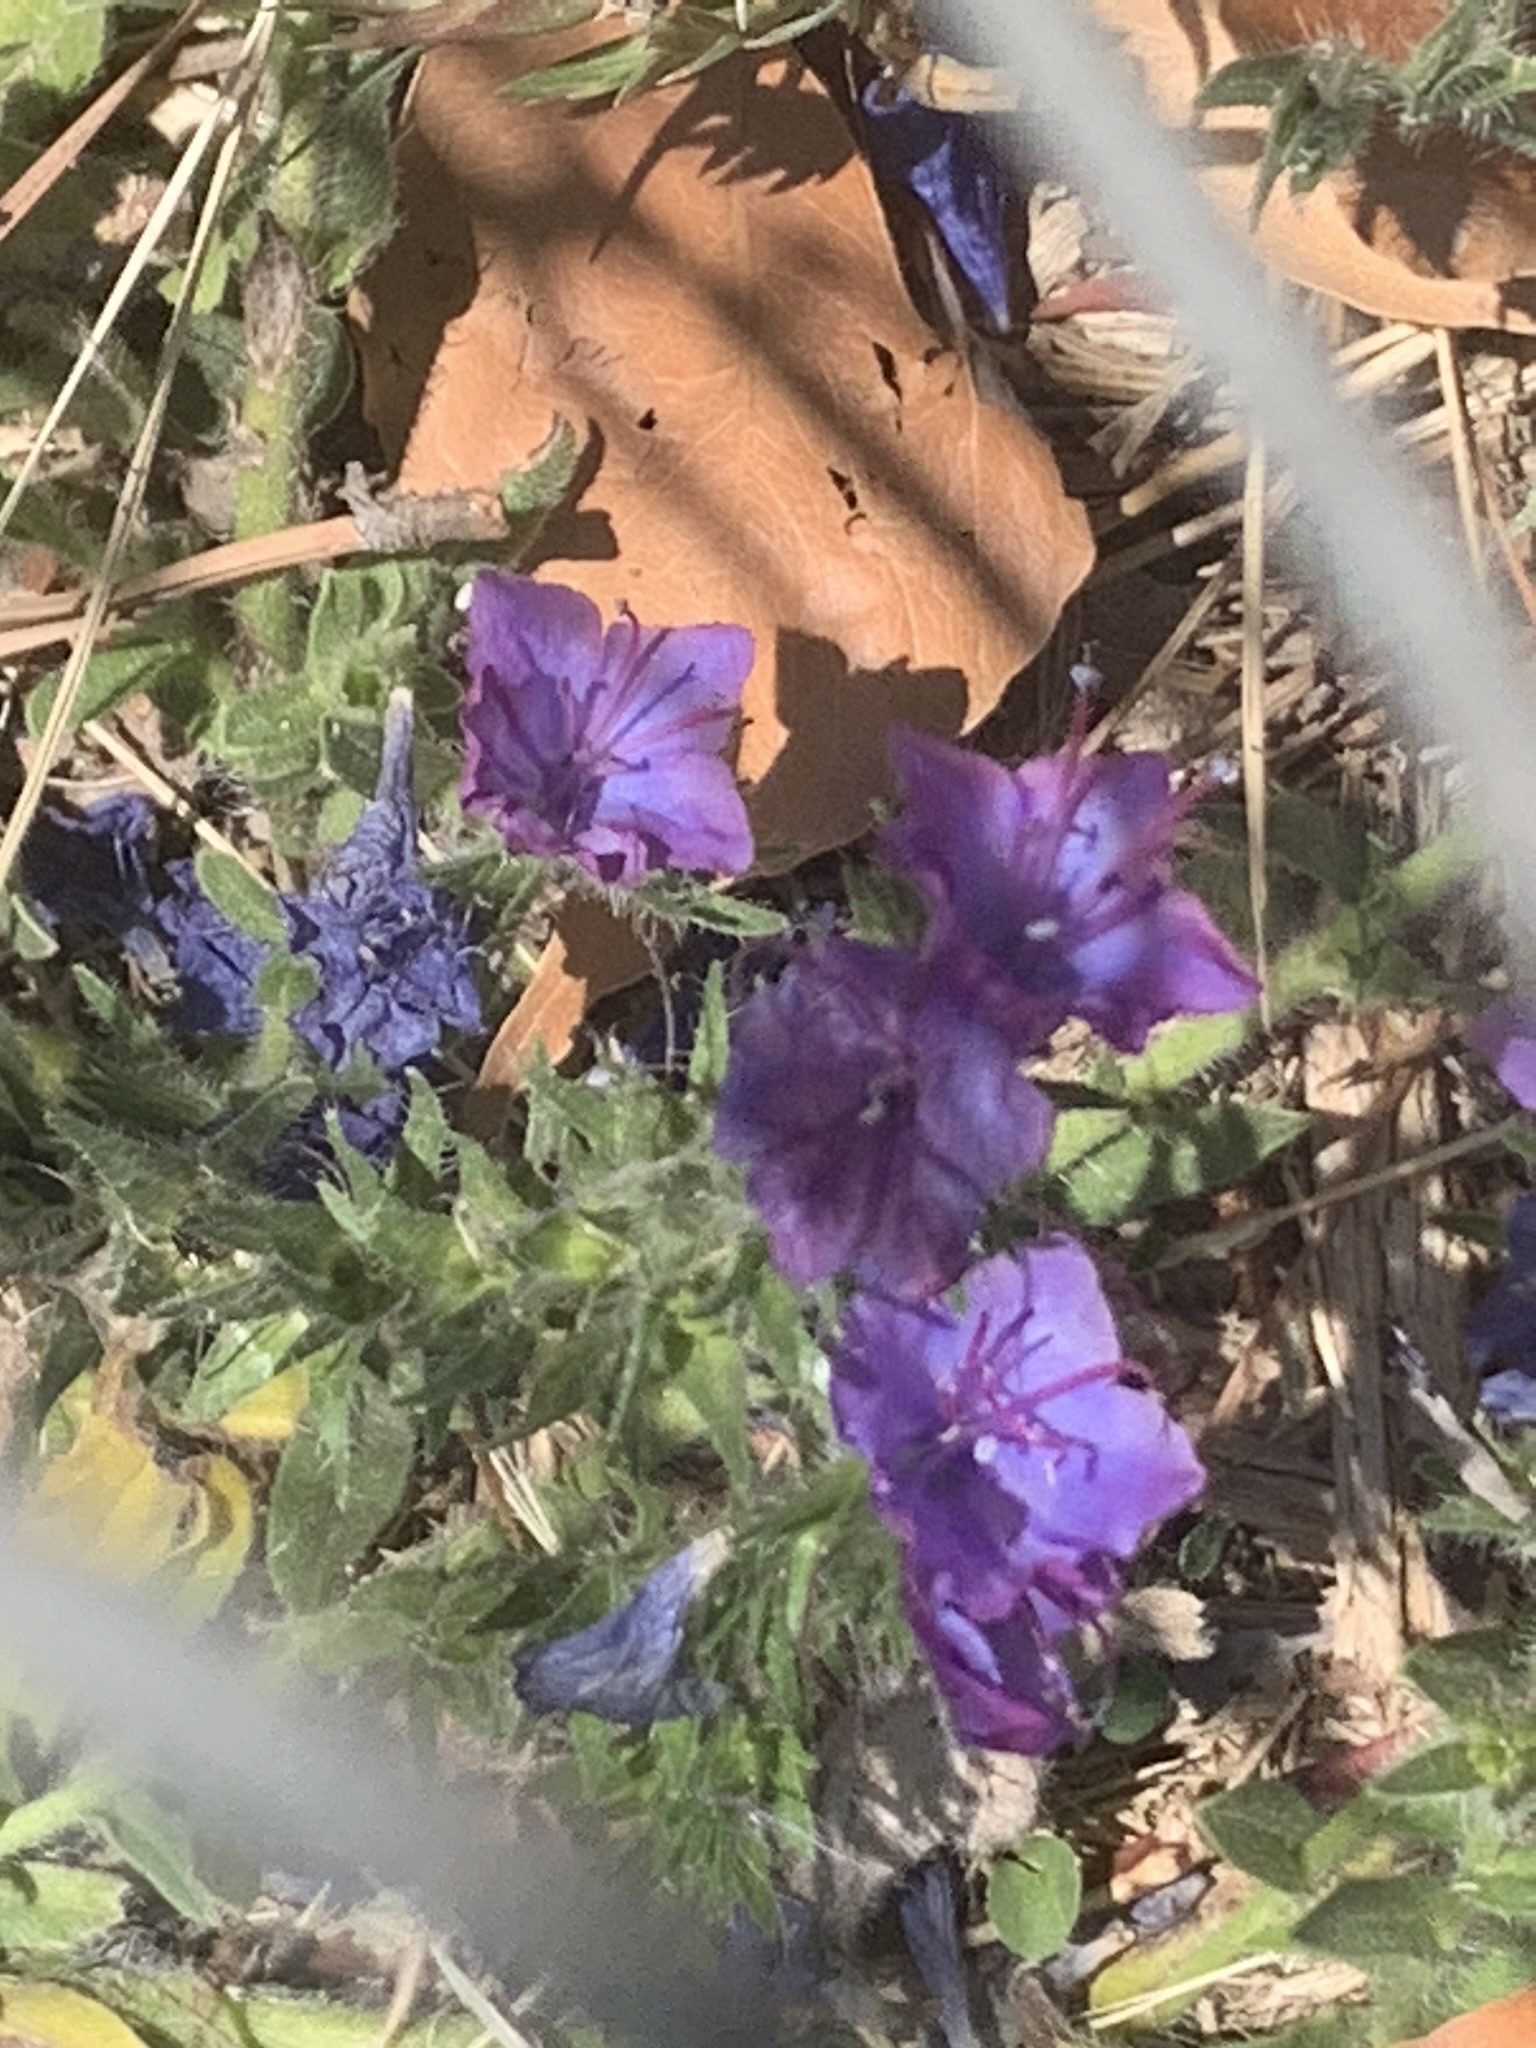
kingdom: Plantae
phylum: Tracheophyta
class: Magnoliopsida
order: Boraginales
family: Boraginaceae
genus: Echium
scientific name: Echium plantagineum
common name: Purple viper's-bugloss
